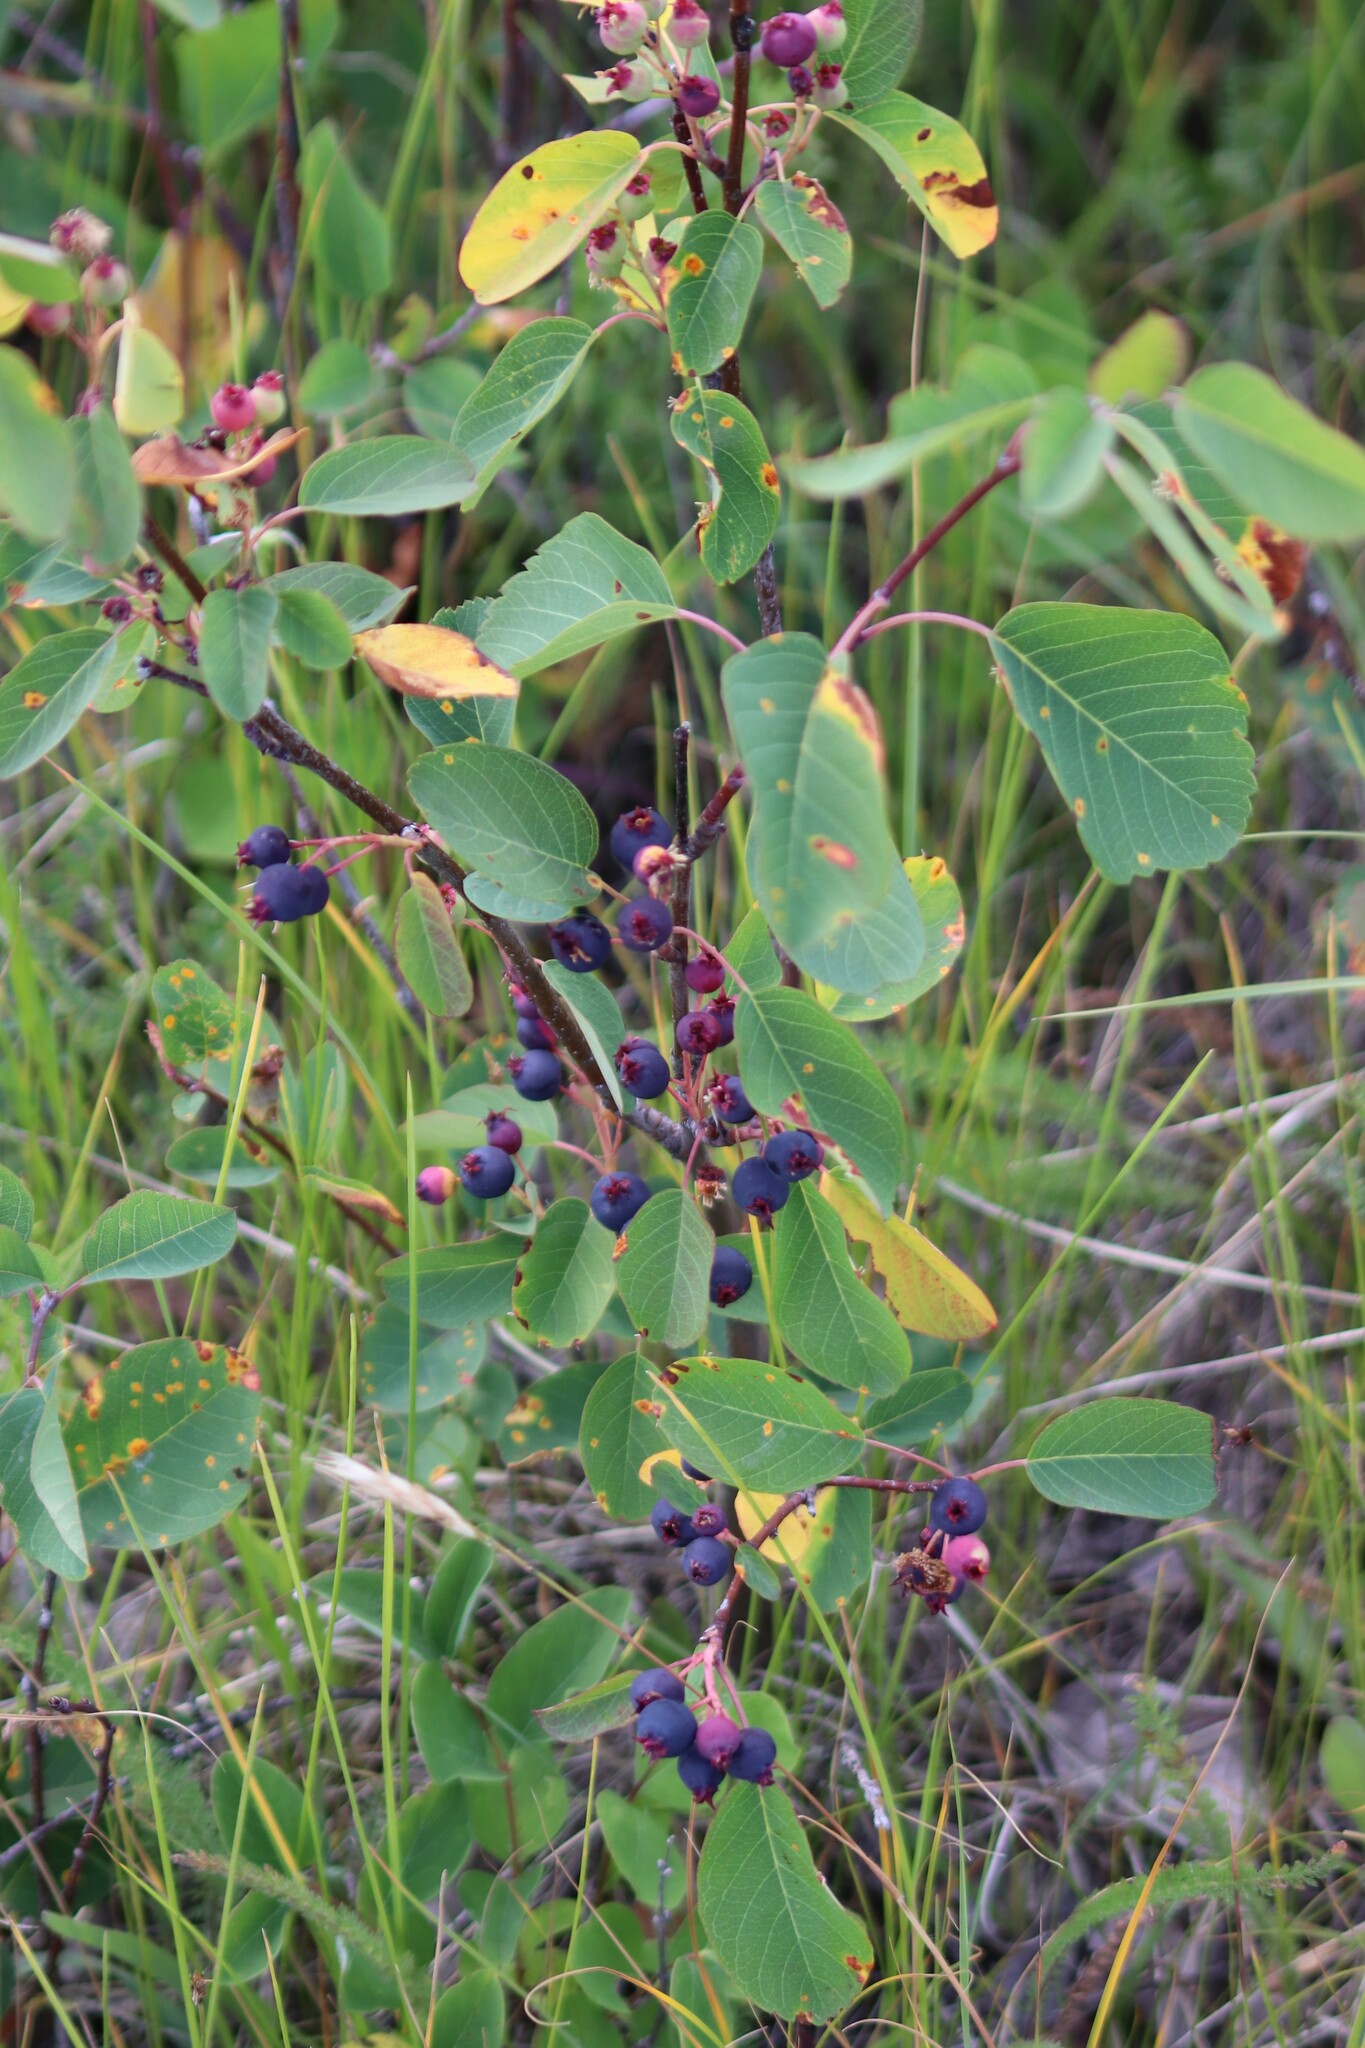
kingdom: Plantae
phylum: Tracheophyta
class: Magnoliopsida
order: Rosales
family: Rosaceae
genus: Amelanchier
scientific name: Amelanchier alnifolia
